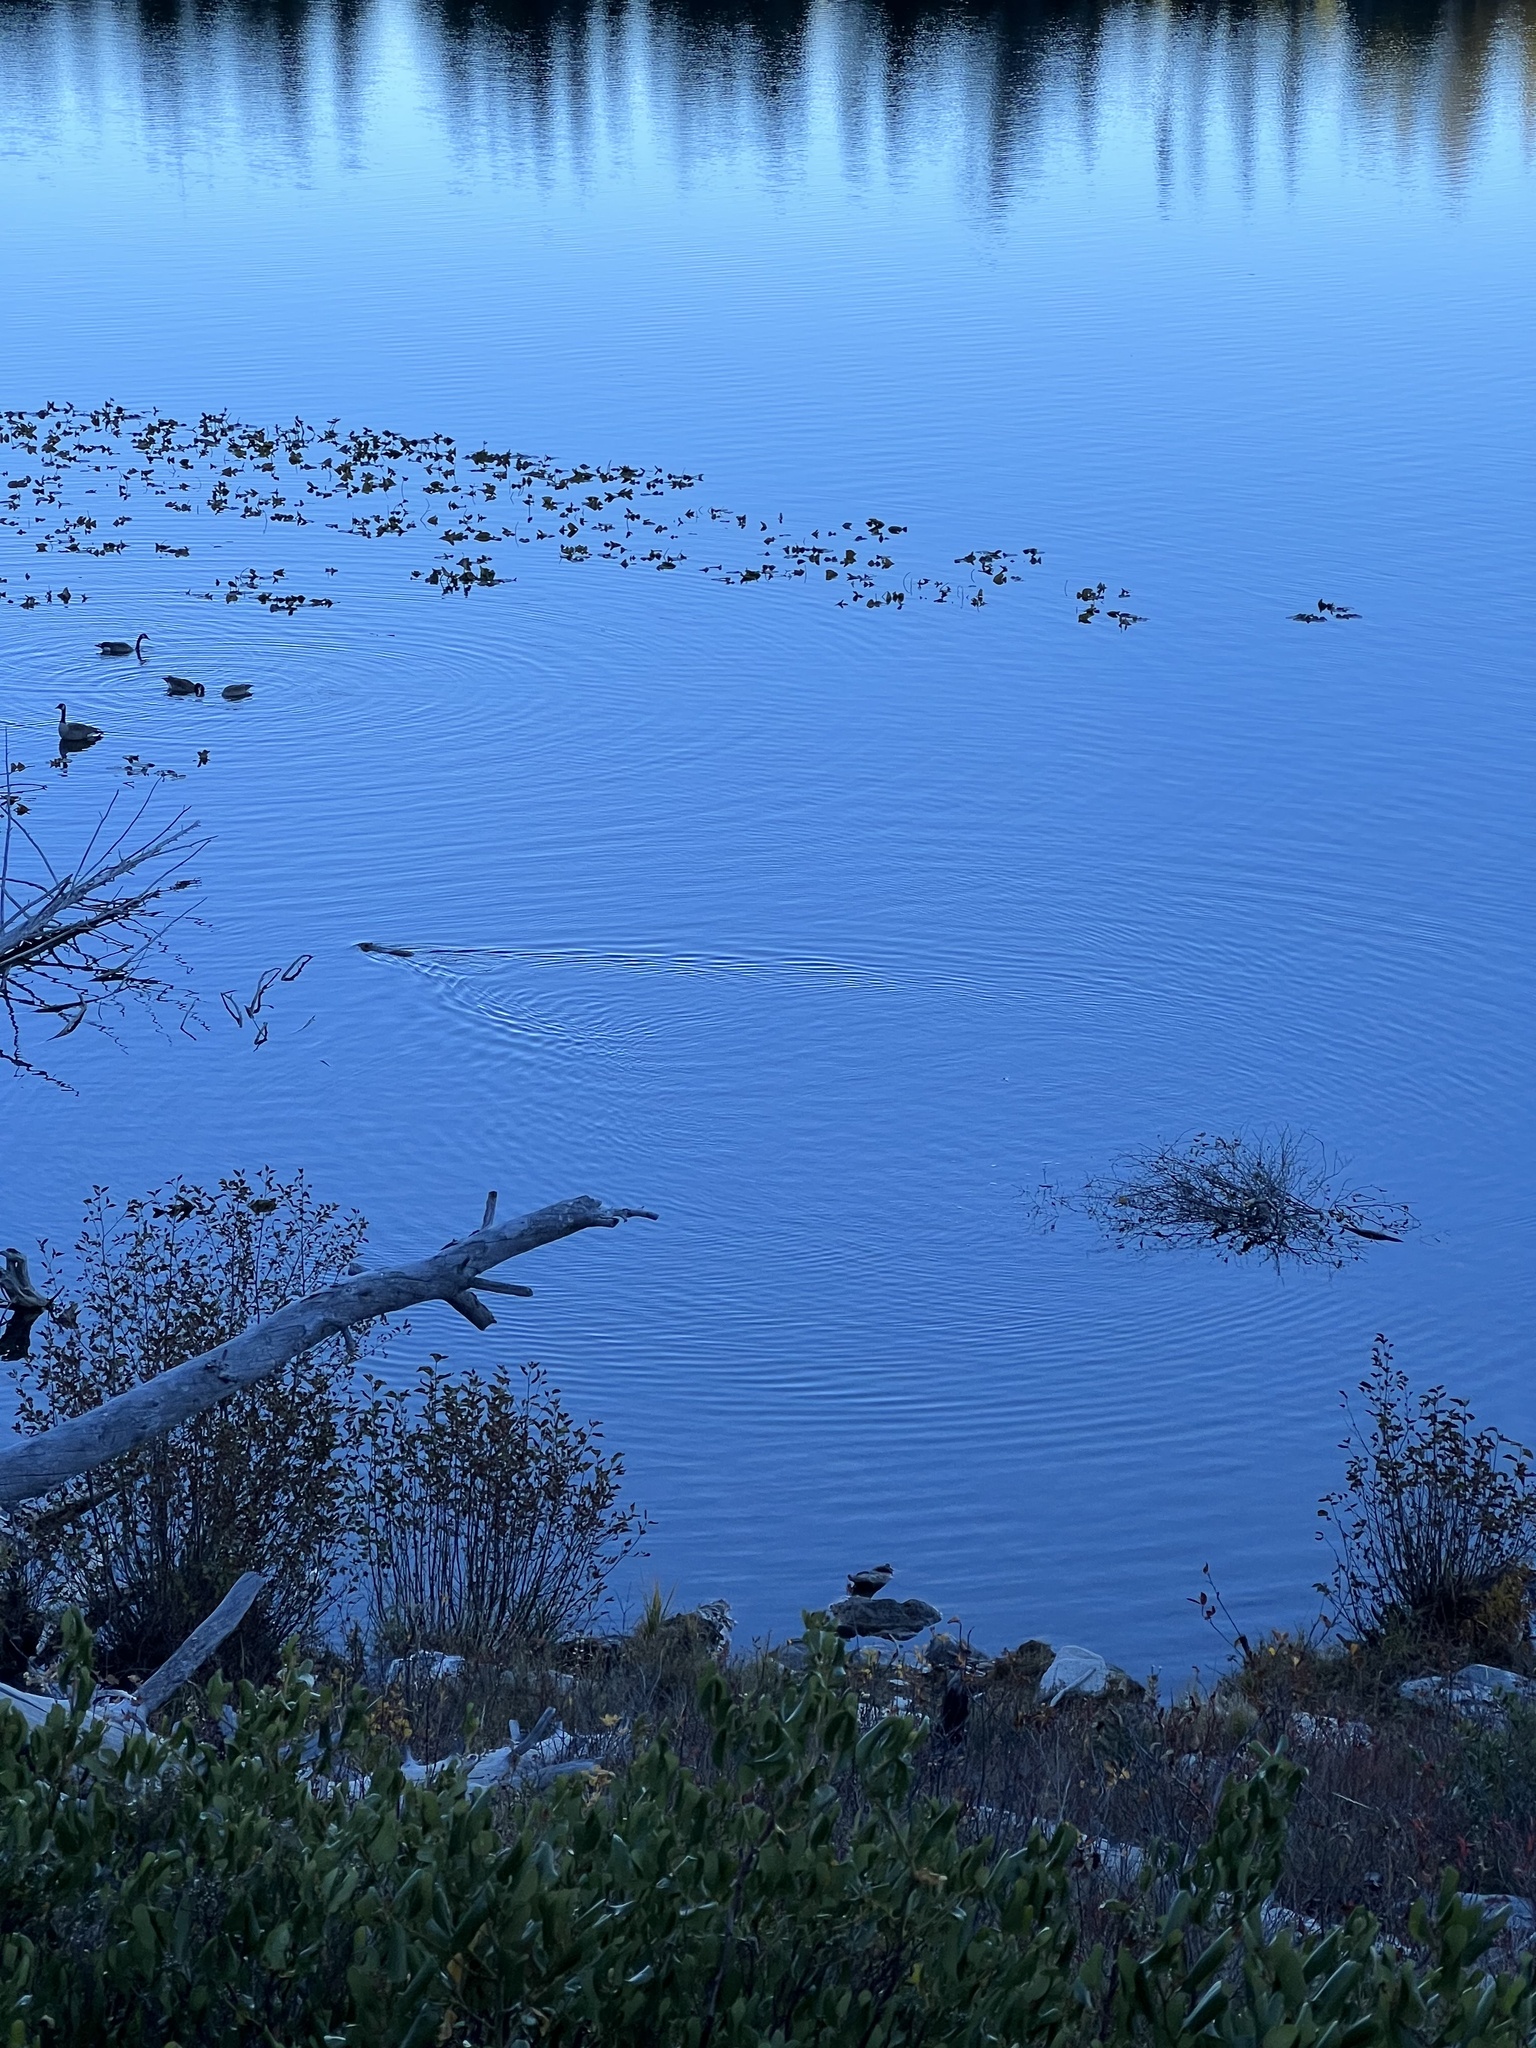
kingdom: Animalia
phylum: Chordata
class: Mammalia
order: Rodentia
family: Castoridae
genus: Castor
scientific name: Castor canadensis
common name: American beaver
